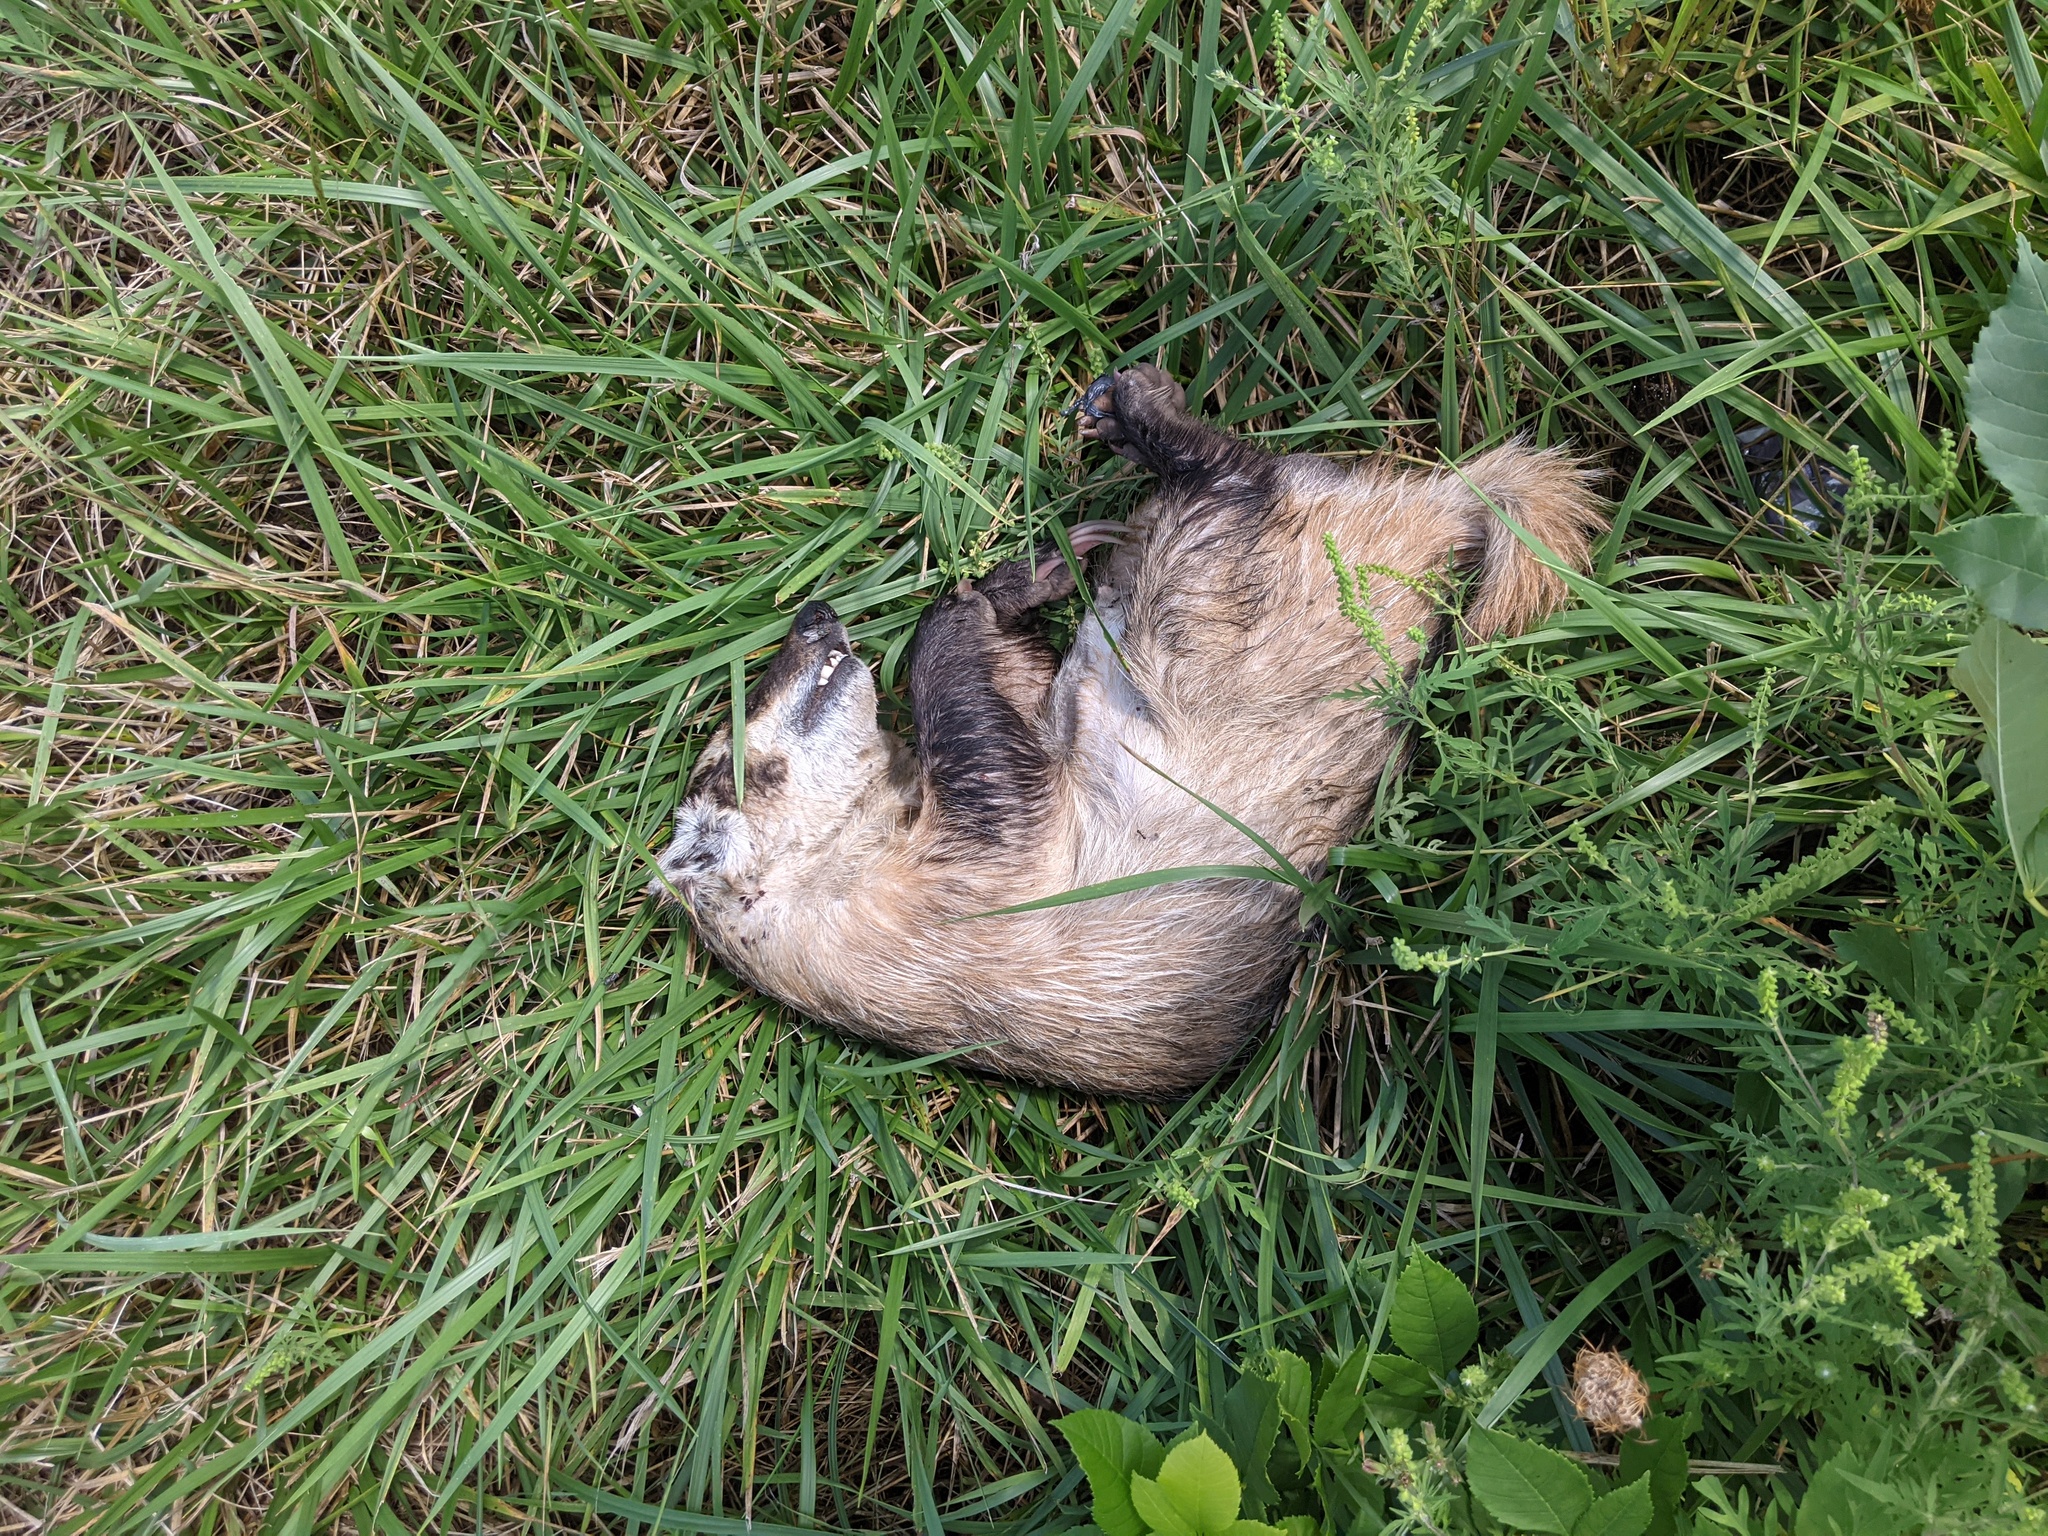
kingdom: Animalia
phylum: Chordata
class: Mammalia
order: Carnivora
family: Mustelidae
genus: Taxidea
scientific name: Taxidea taxus
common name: American badger
